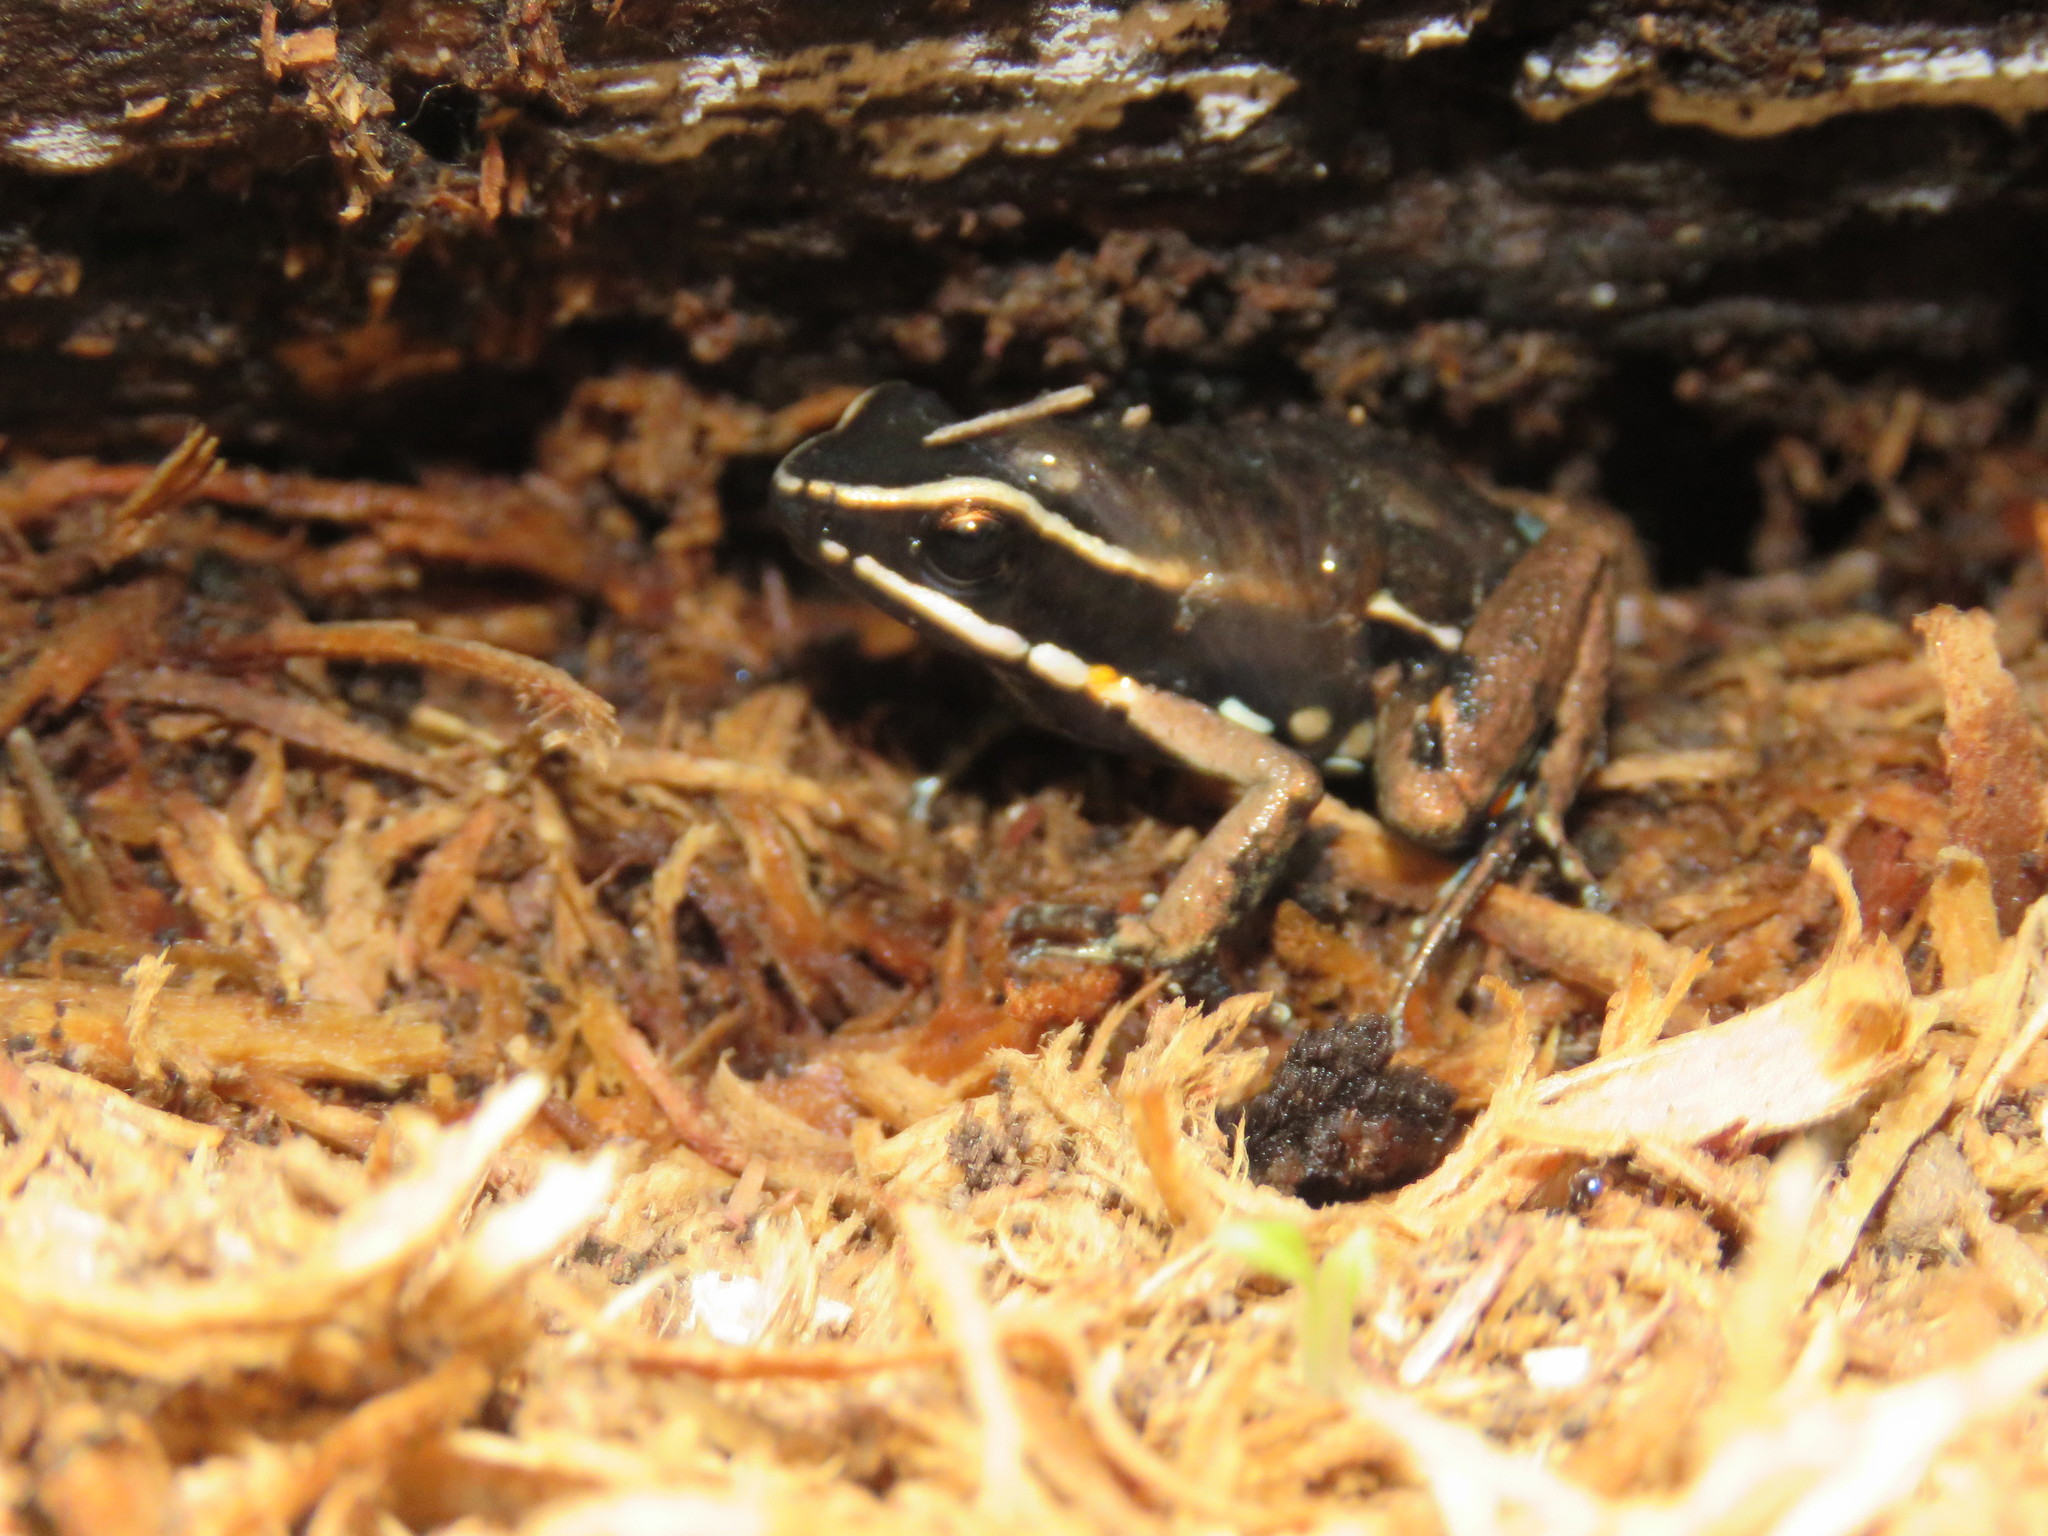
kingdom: Animalia
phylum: Chordata
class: Amphibia
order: Anura
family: Dendrobatidae
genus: Ameerega
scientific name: Ameerega picta
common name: Spot-legged poison frog
